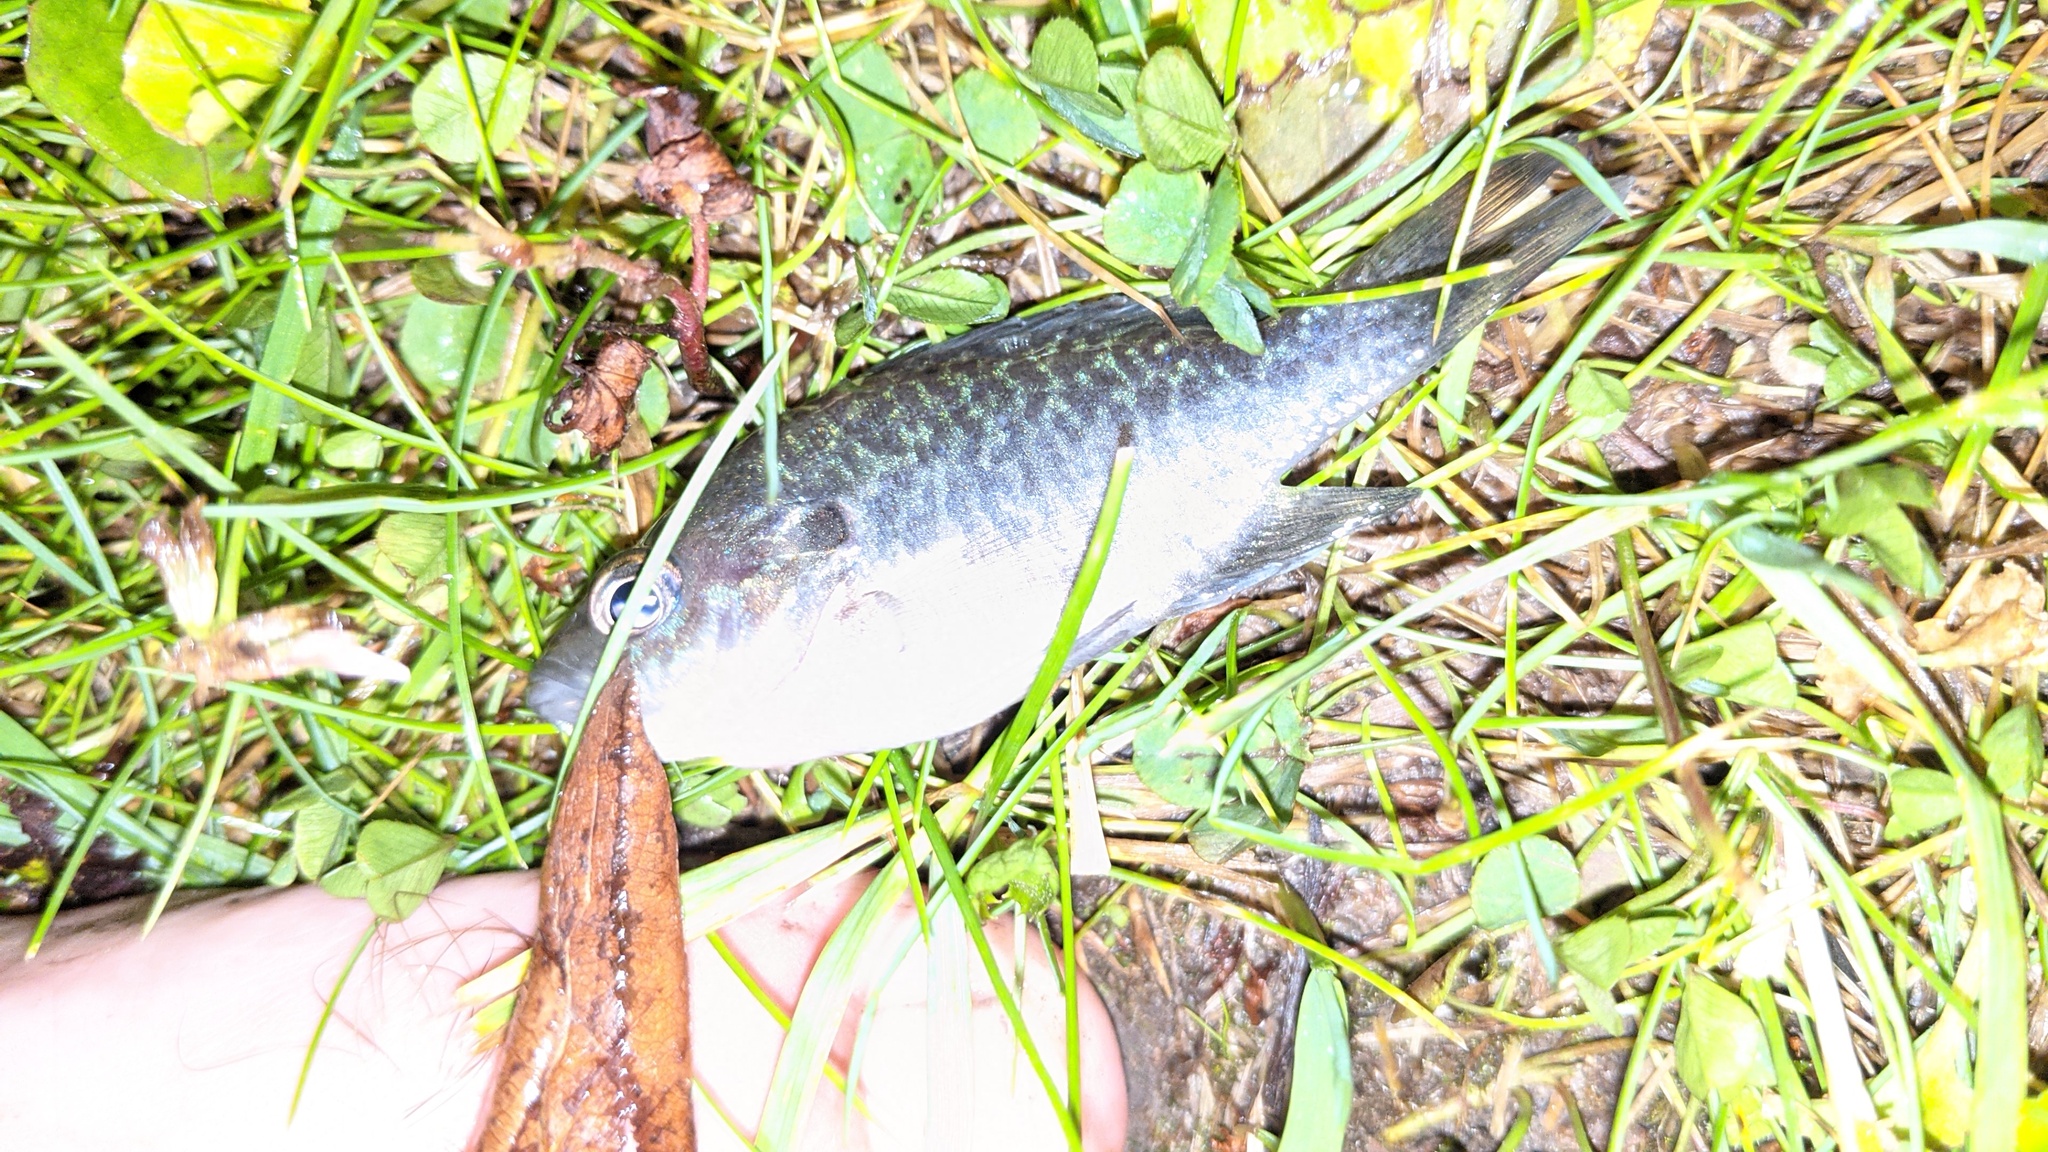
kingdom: Animalia
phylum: Chordata
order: Perciformes
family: Centrarchidae
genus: Lepomis
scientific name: Lepomis
